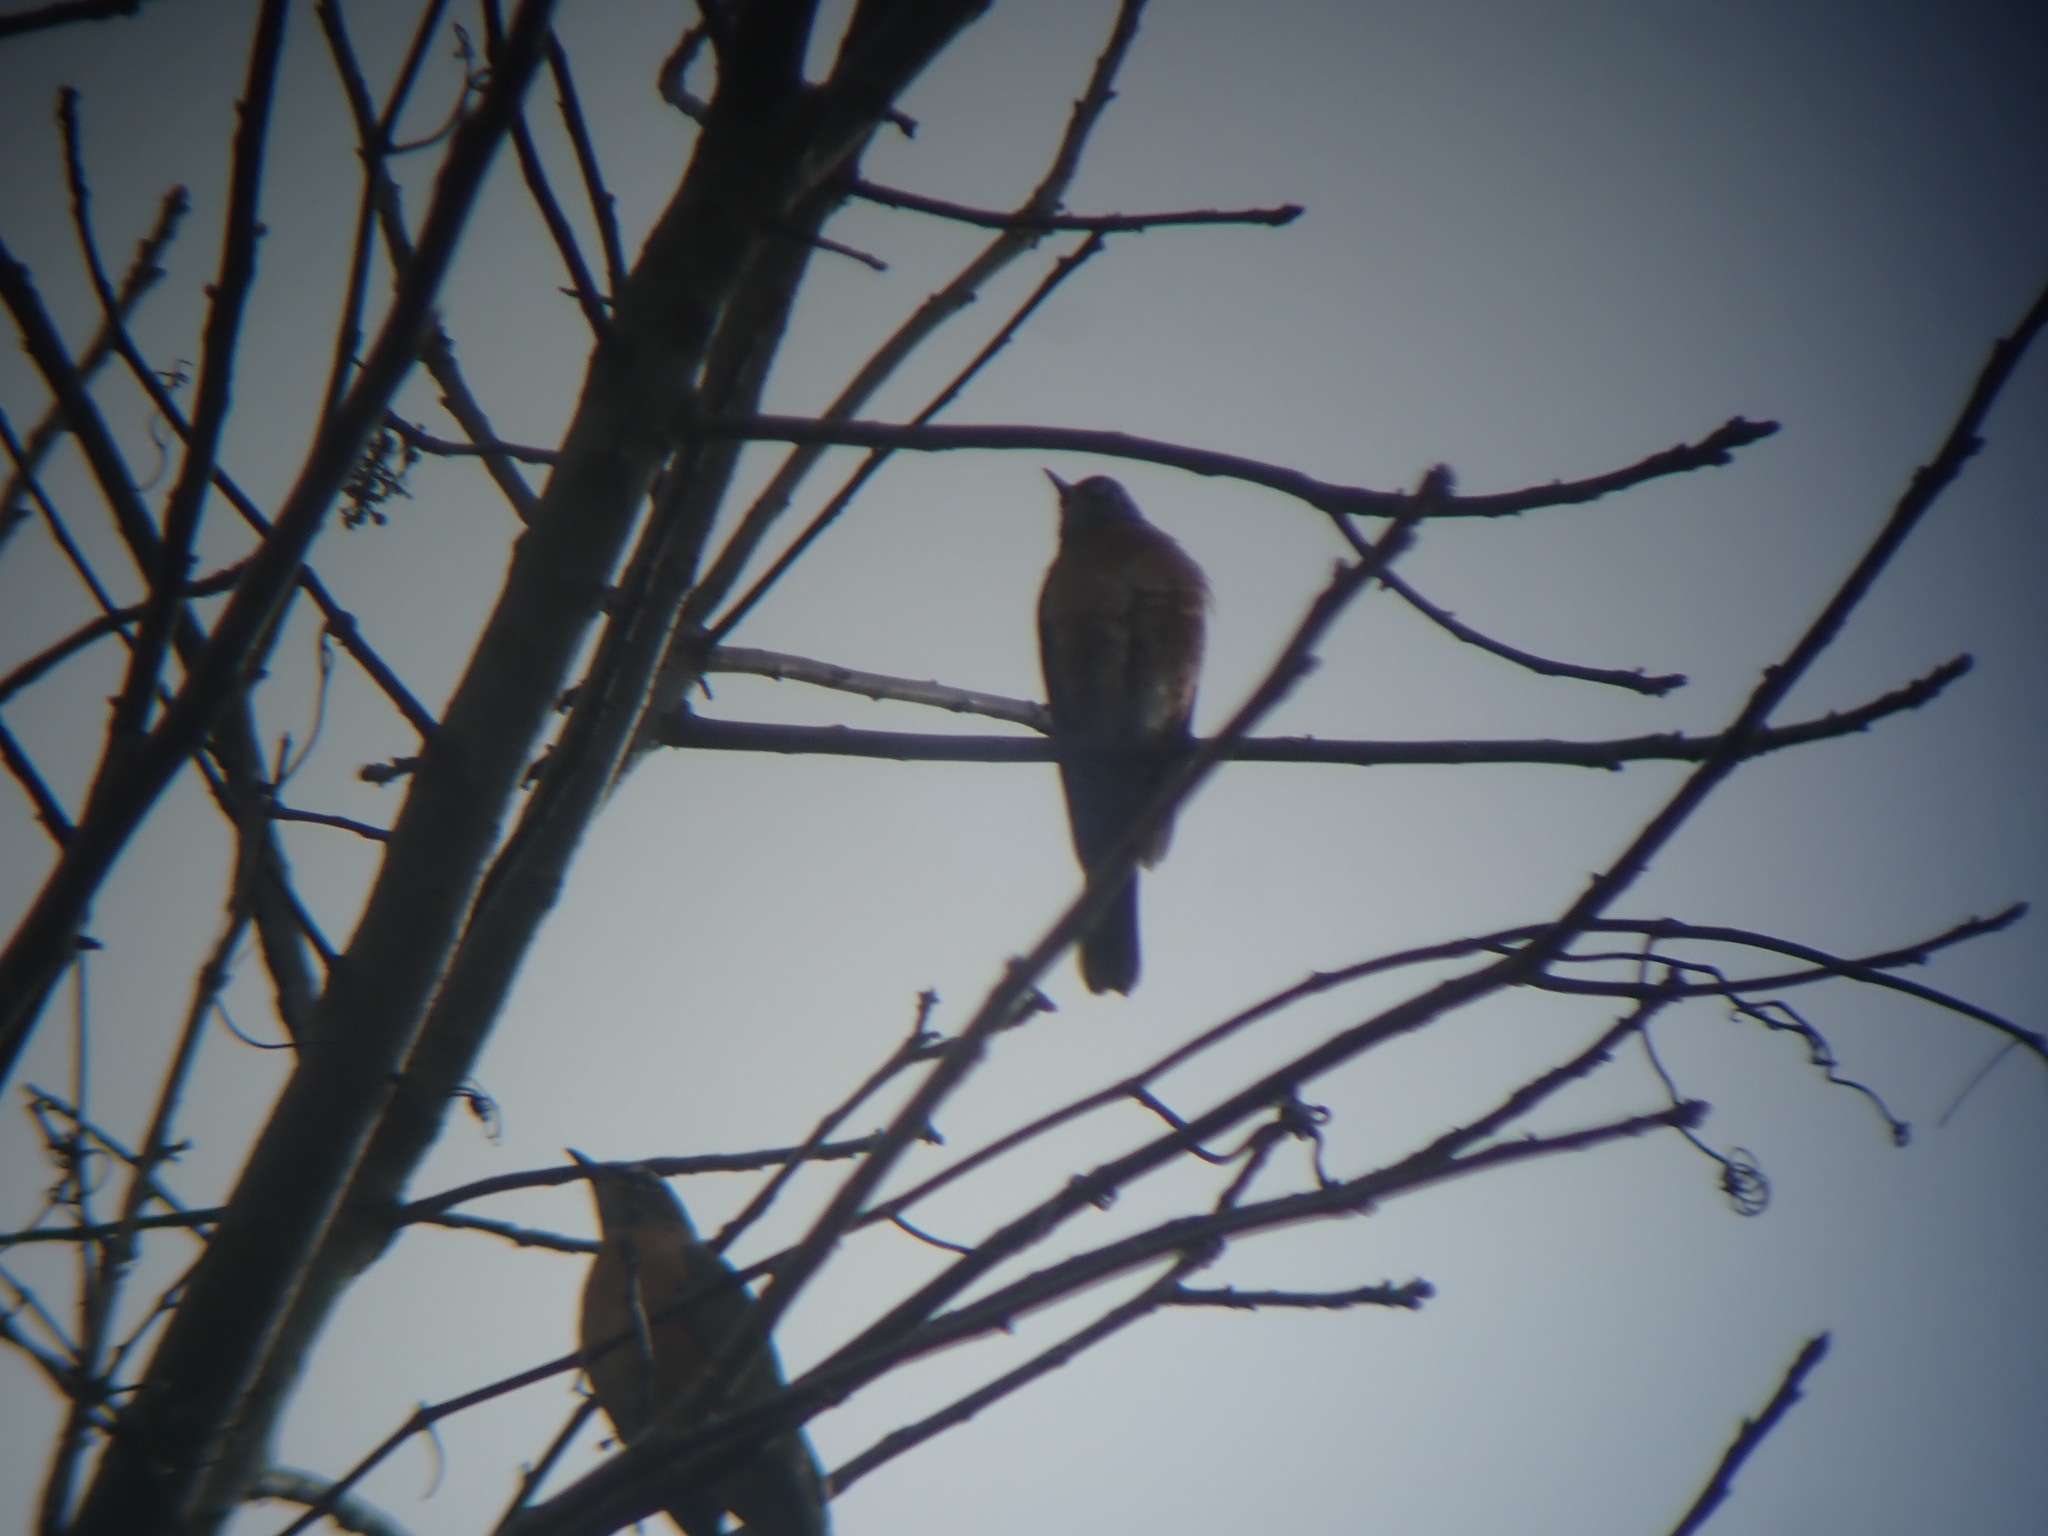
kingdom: Animalia
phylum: Chordata
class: Aves
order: Passeriformes
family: Turdidae
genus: Turdus
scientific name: Turdus migratorius
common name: American robin
